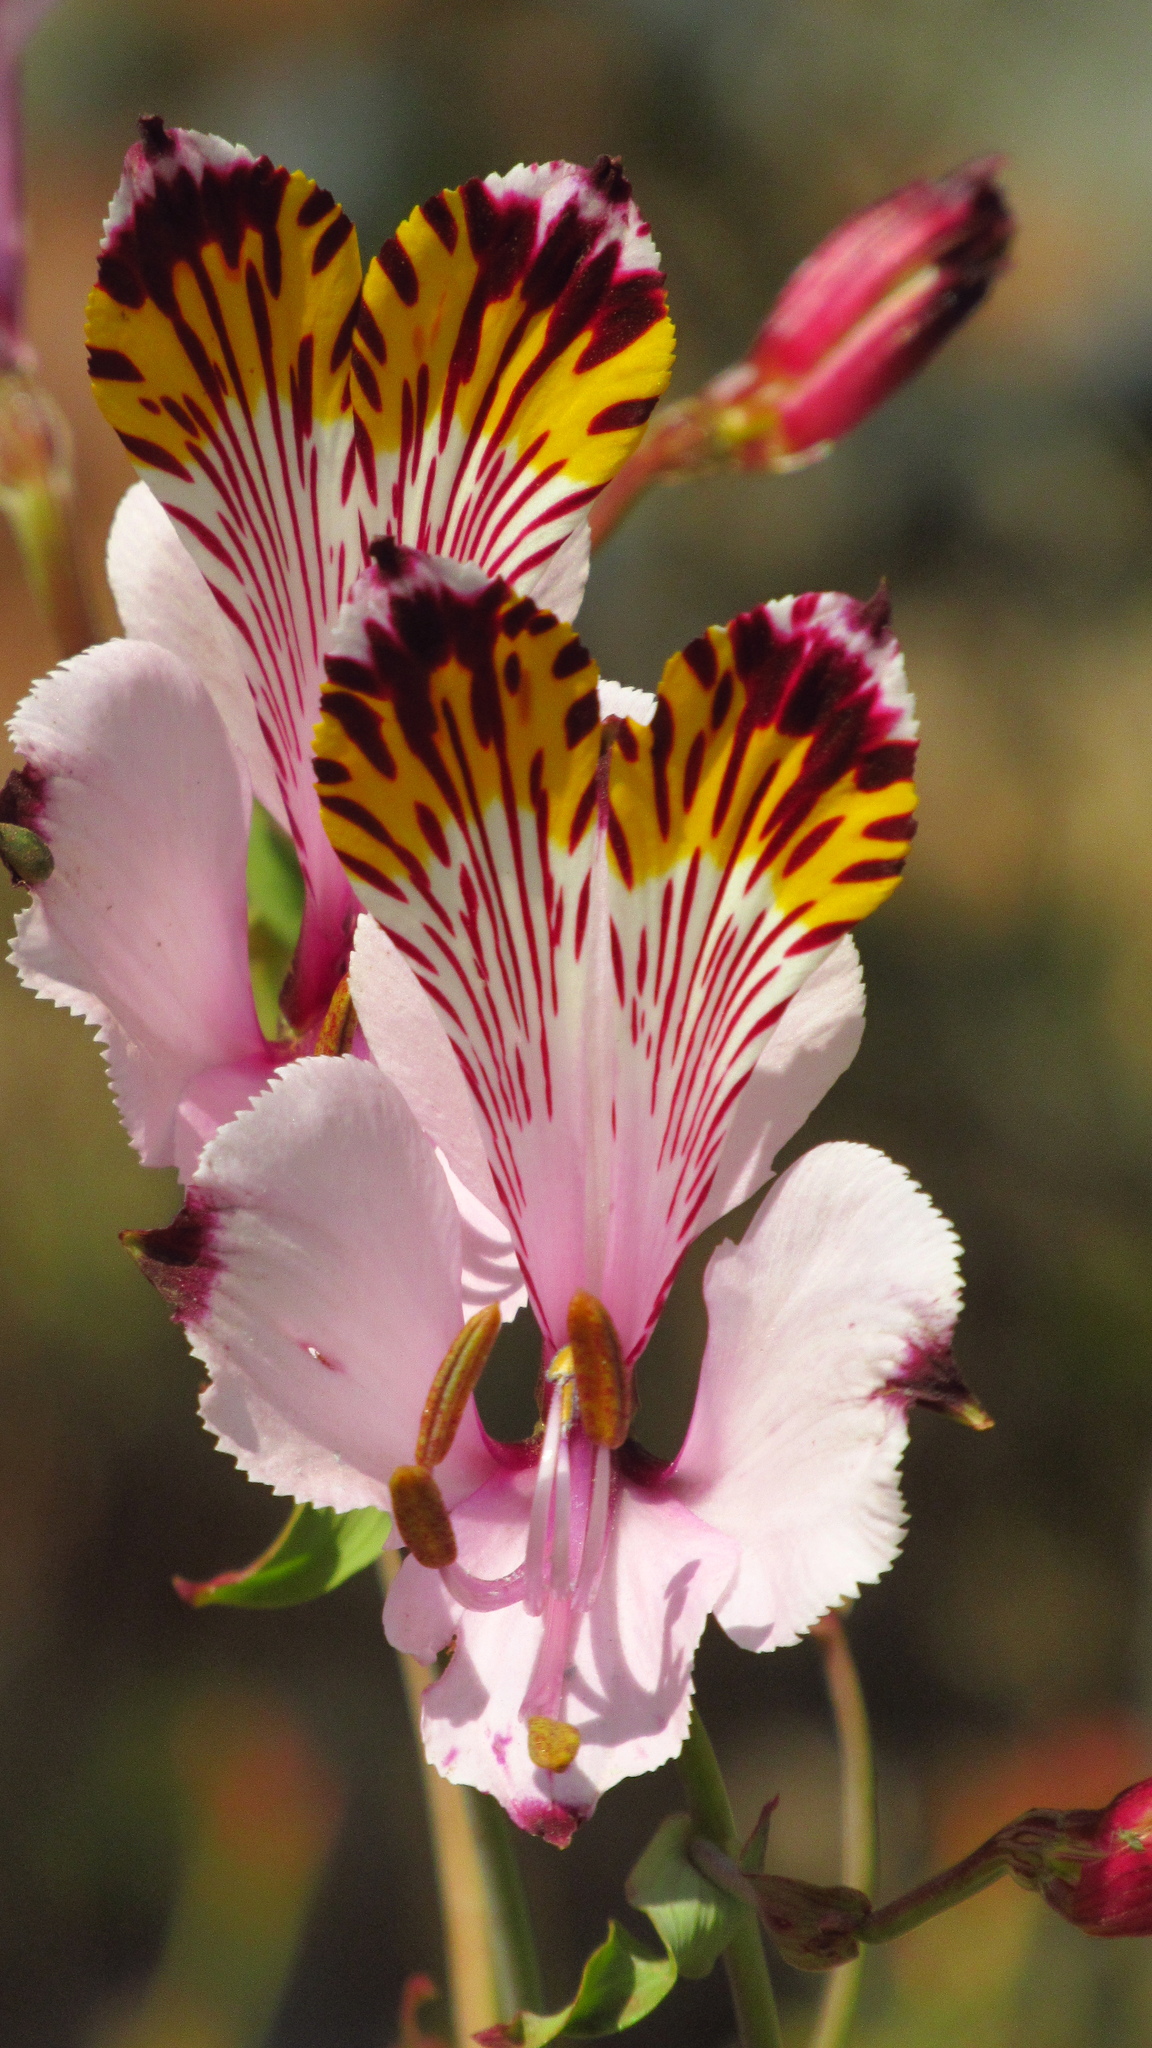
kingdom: Plantae
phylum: Tracheophyta
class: Liliopsida
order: Liliales
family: Alstroemeriaceae
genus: Alstroemeria
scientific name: Alstroemeria pulchra
